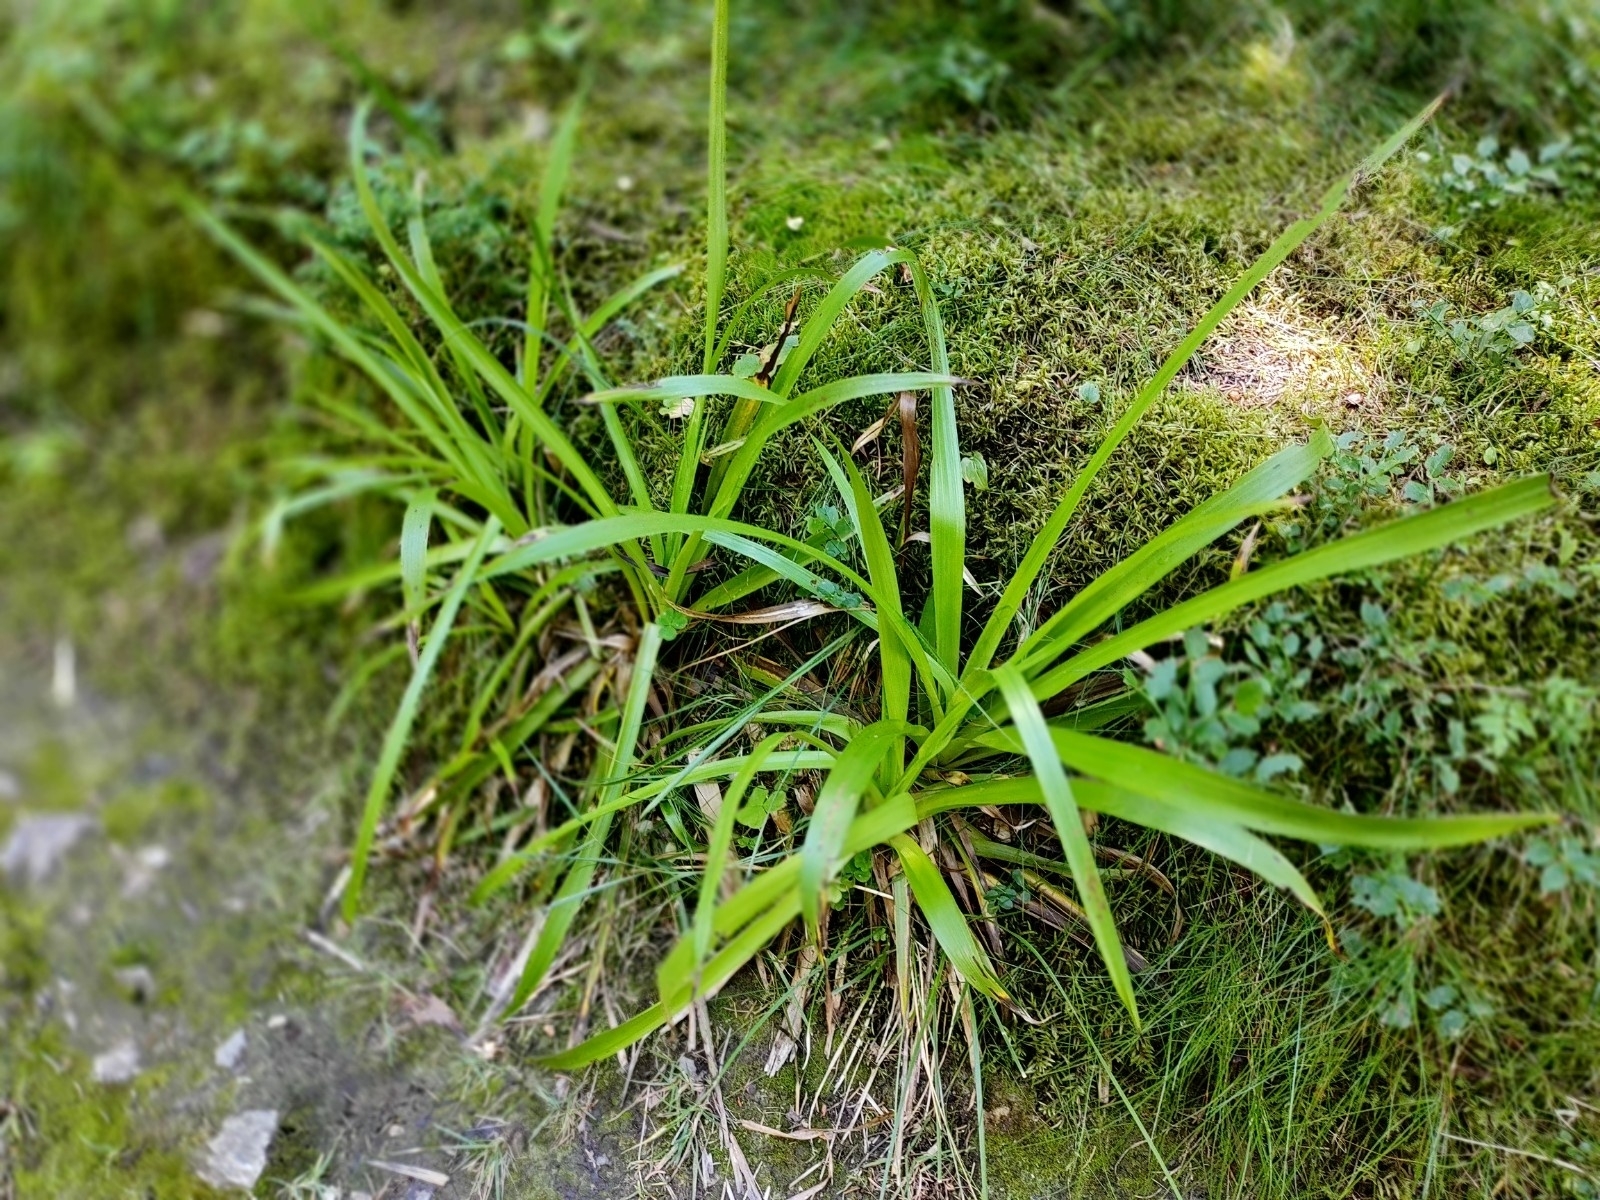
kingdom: Plantae
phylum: Tracheophyta
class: Liliopsida
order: Poales
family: Juncaceae
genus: Luzula
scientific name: Luzula sylvatica
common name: Great wood-rush
